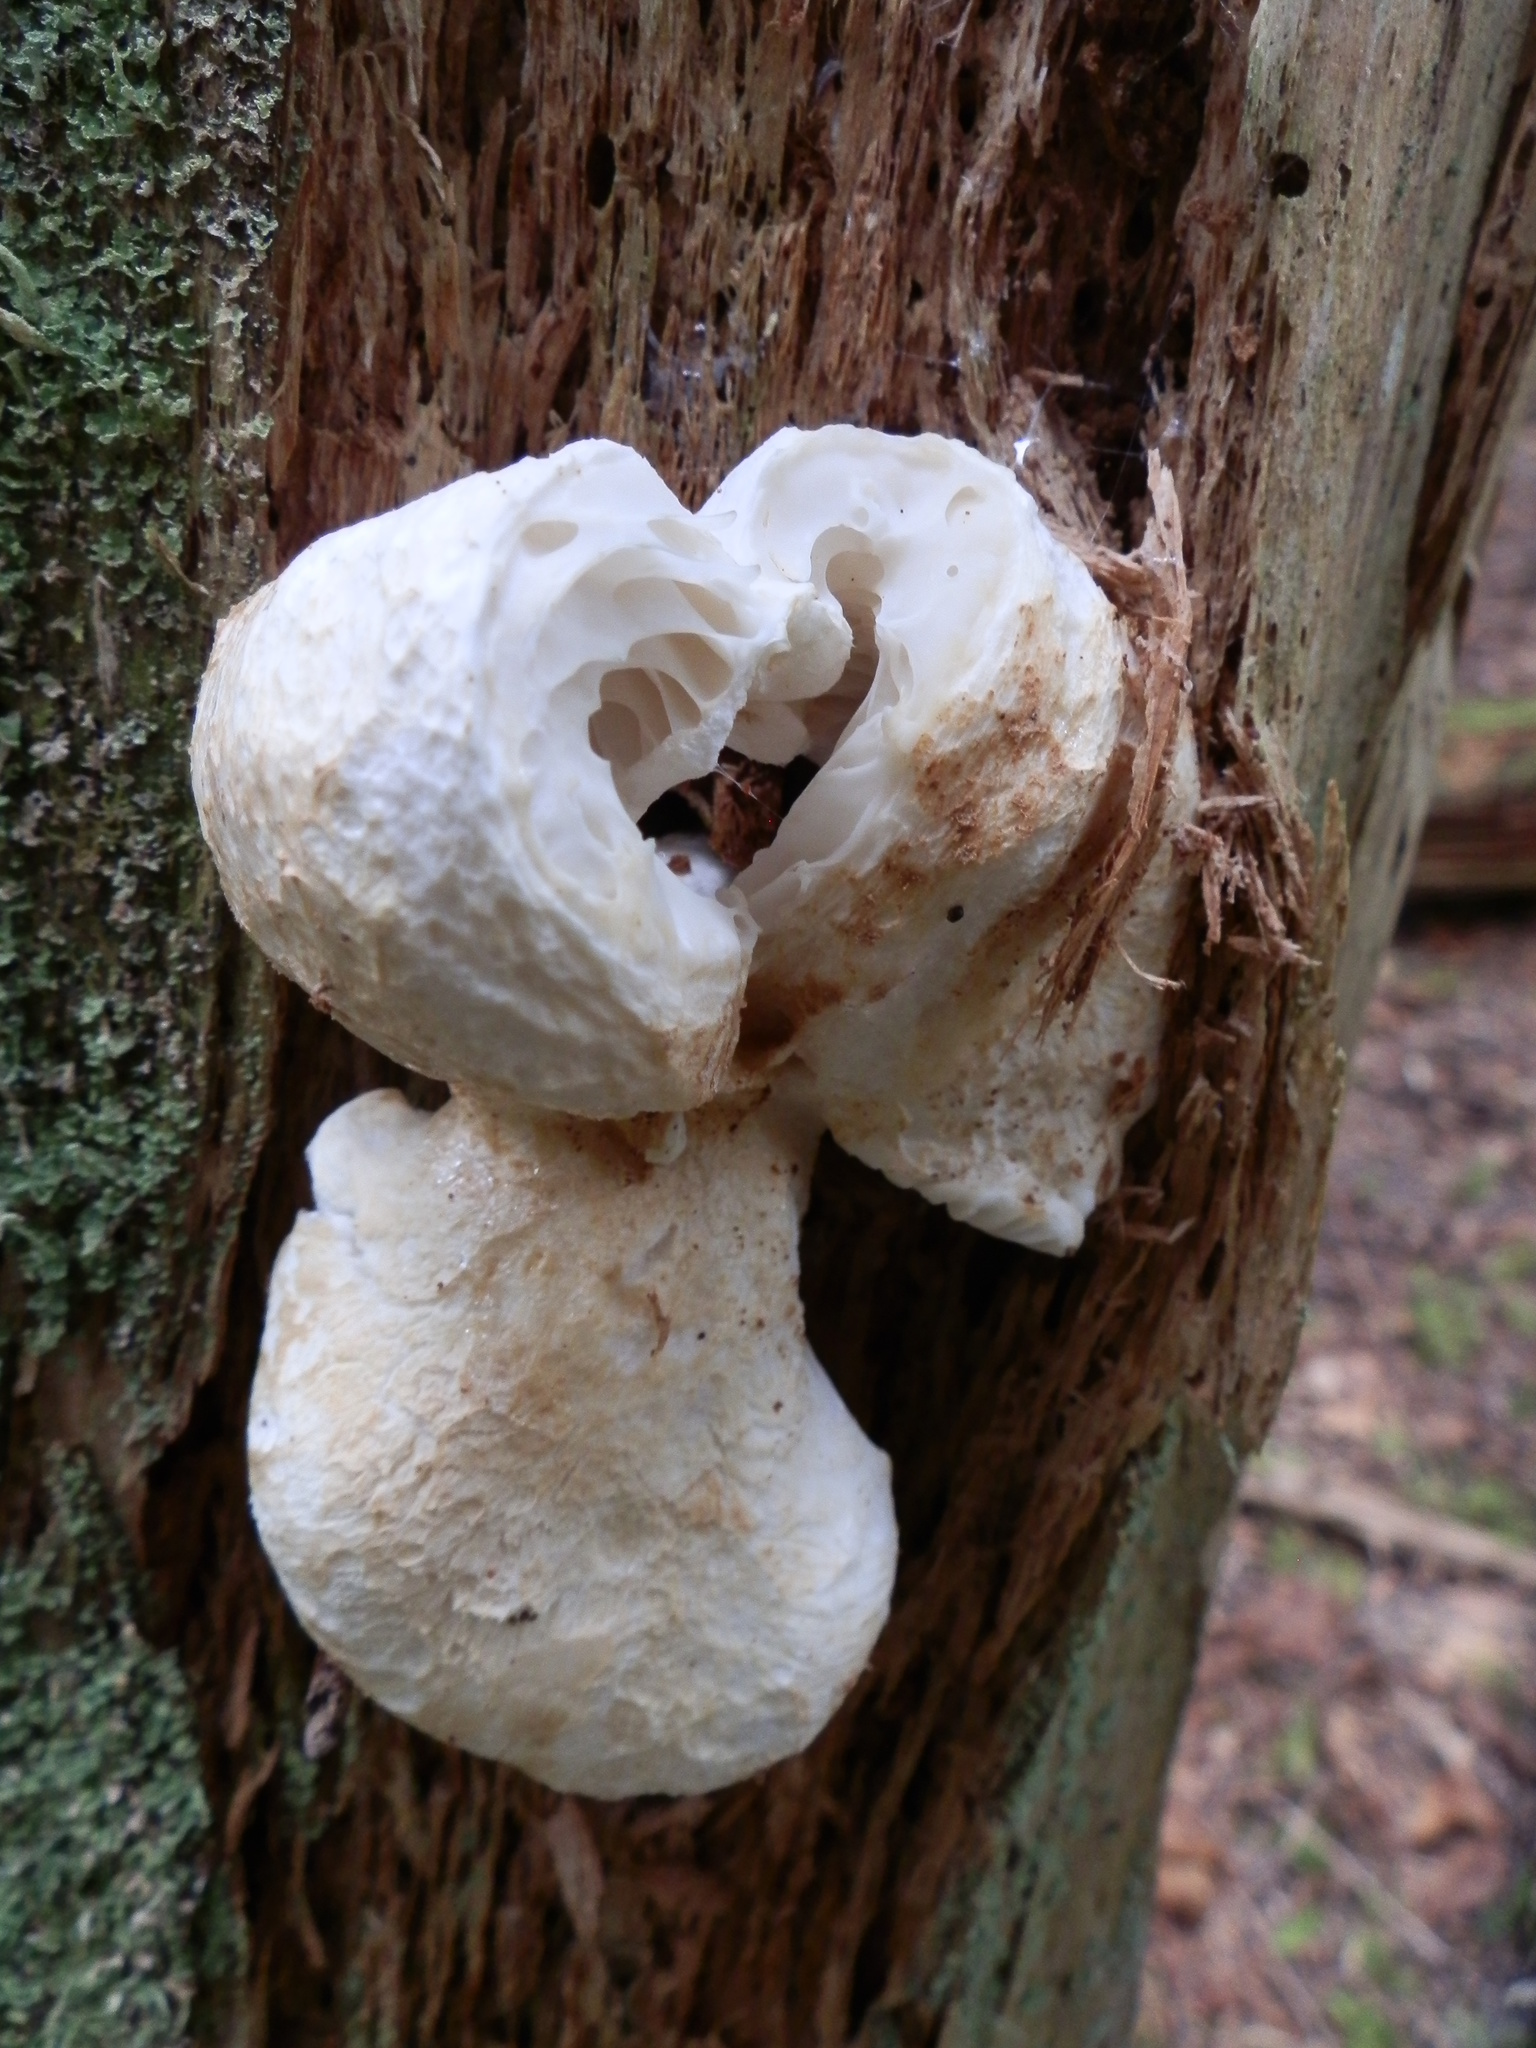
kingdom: Fungi
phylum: Basidiomycota
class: Agaricomycetes
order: Russulales
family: Russulaceae
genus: Lactifluus
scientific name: Lactifluus
